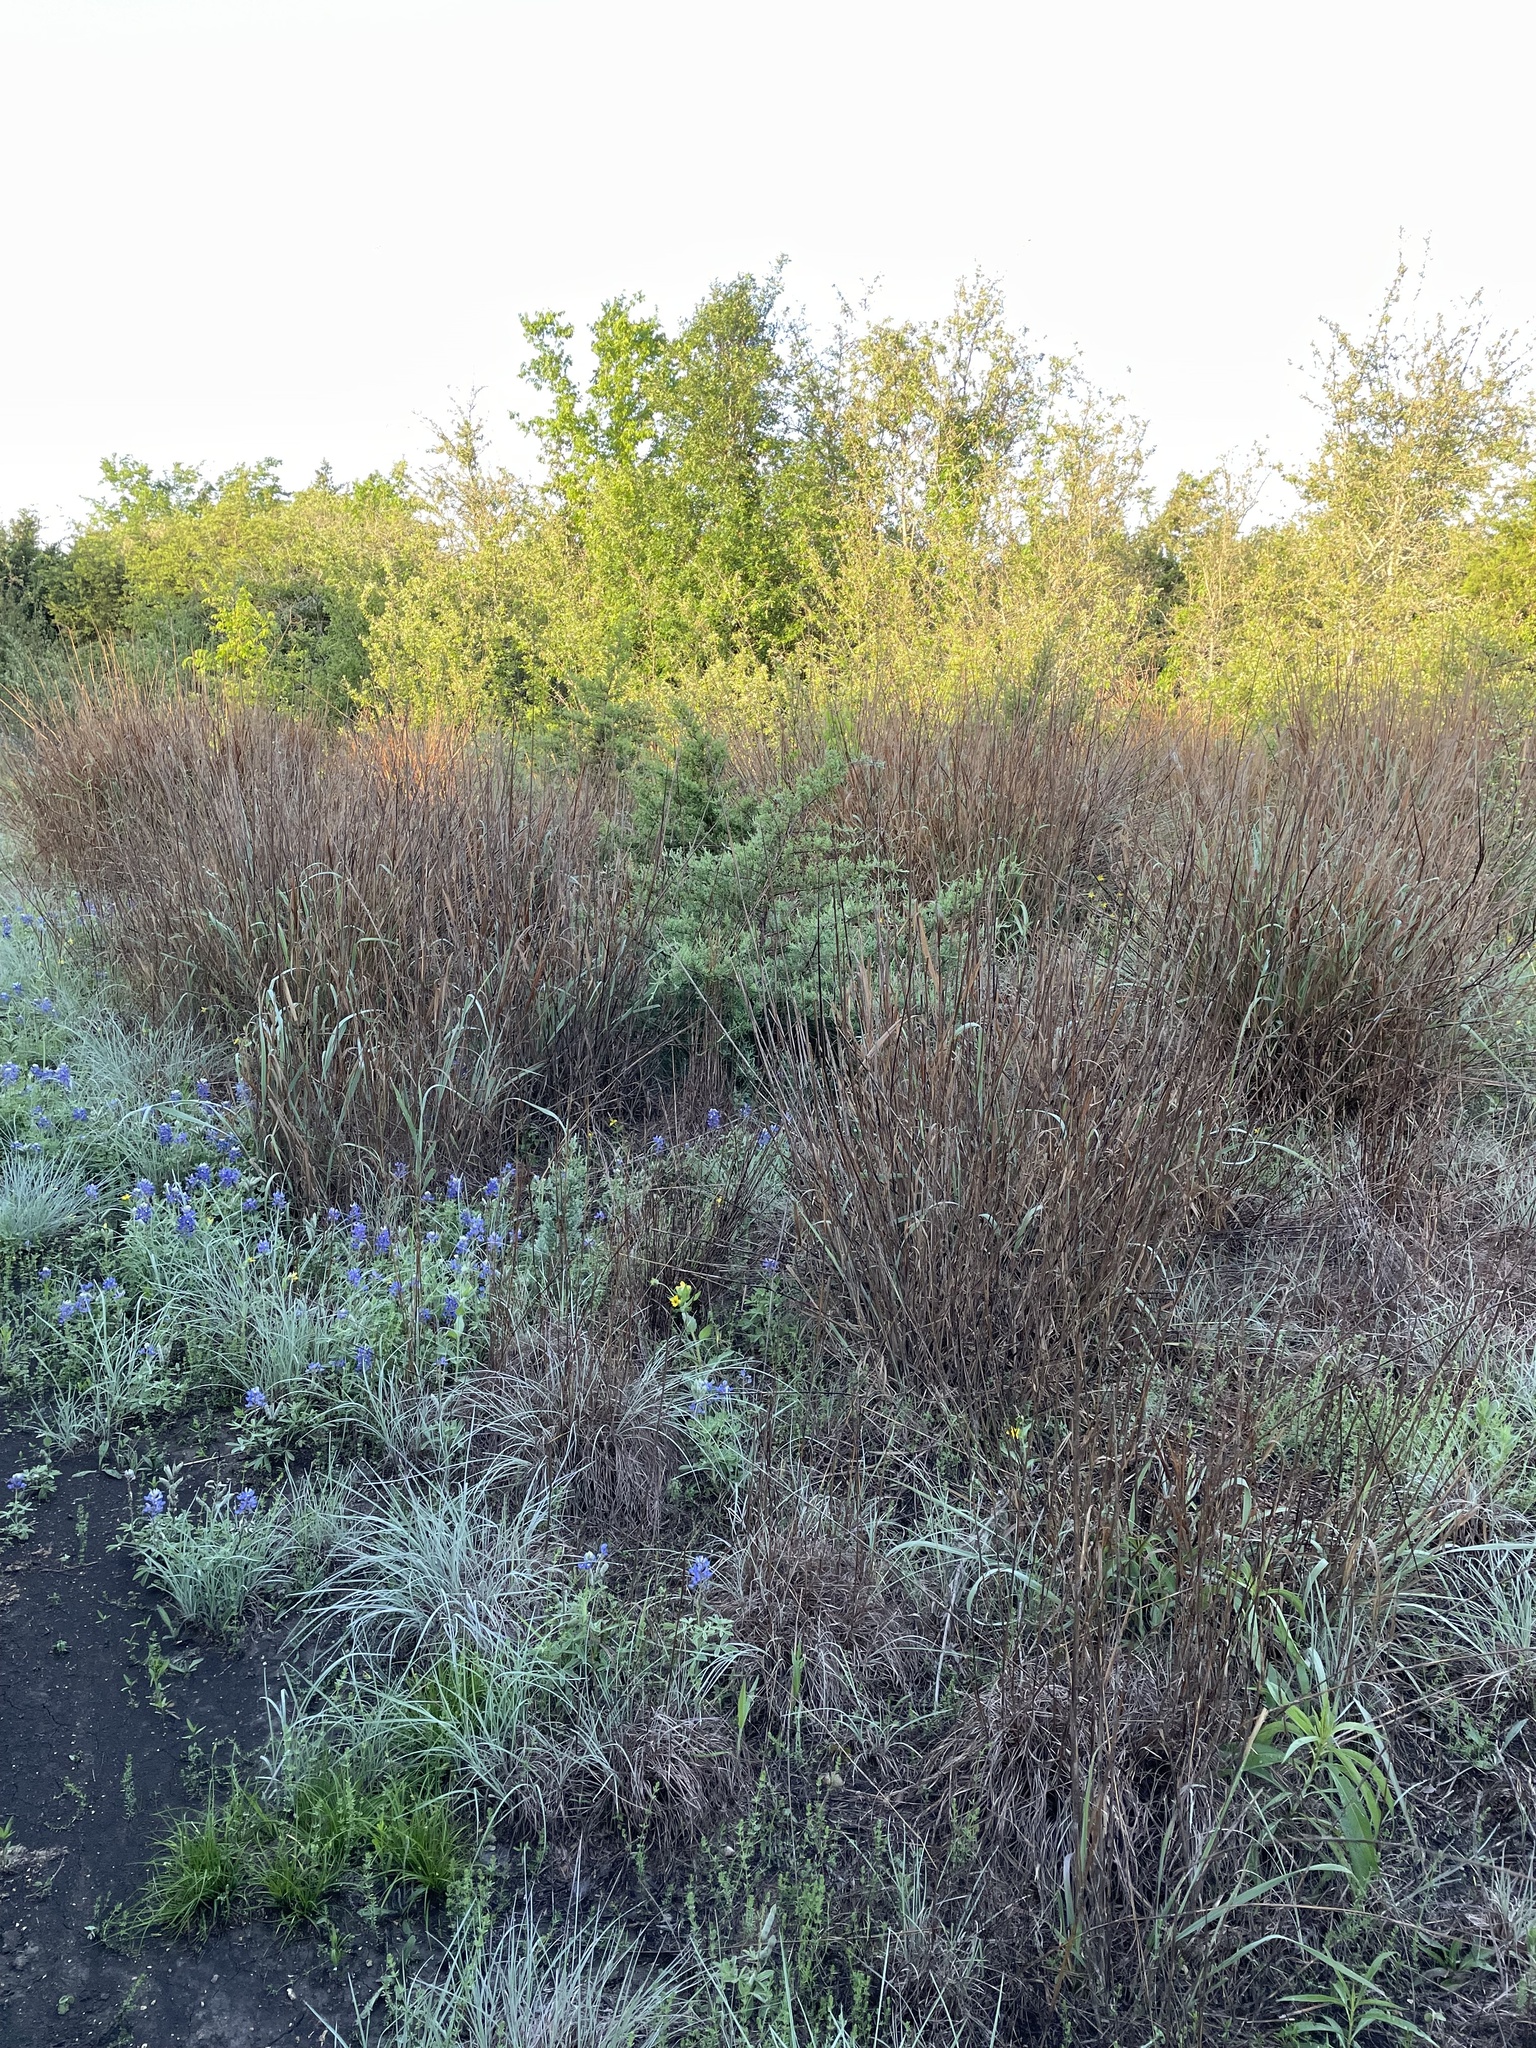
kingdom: Plantae
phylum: Tracheophyta
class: Liliopsida
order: Poales
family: Poaceae
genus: Panicum
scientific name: Panicum virgatum
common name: Switchgrass
